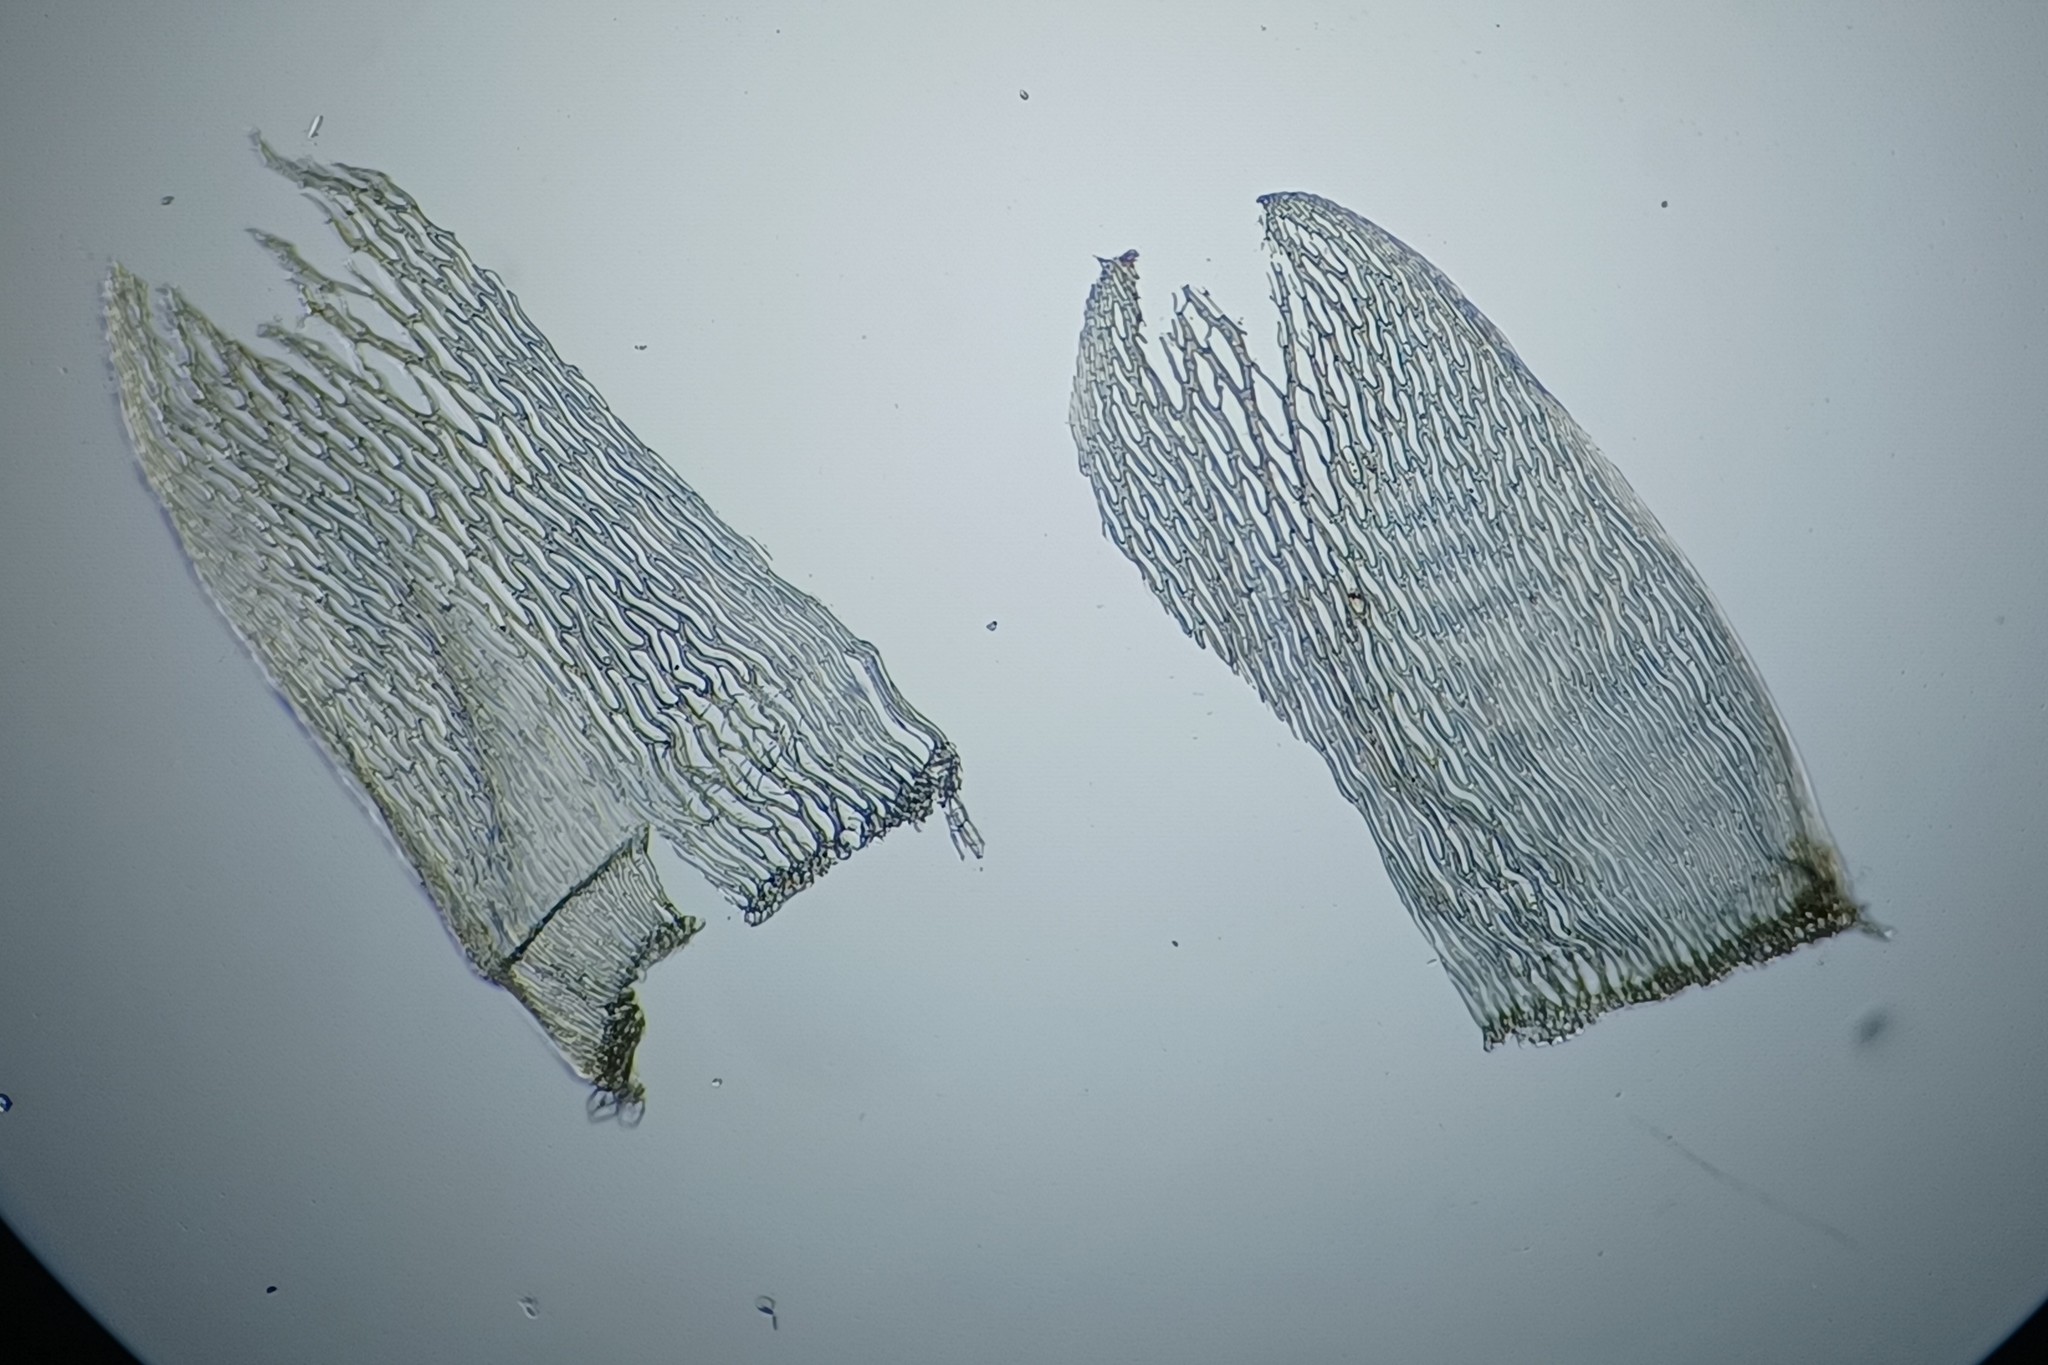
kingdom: Plantae
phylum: Bryophyta
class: Sphagnopsida
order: Sphagnales
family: Sphagnaceae
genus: Sphagnum
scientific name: Sphagnum riparium
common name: Streamside peat moss
